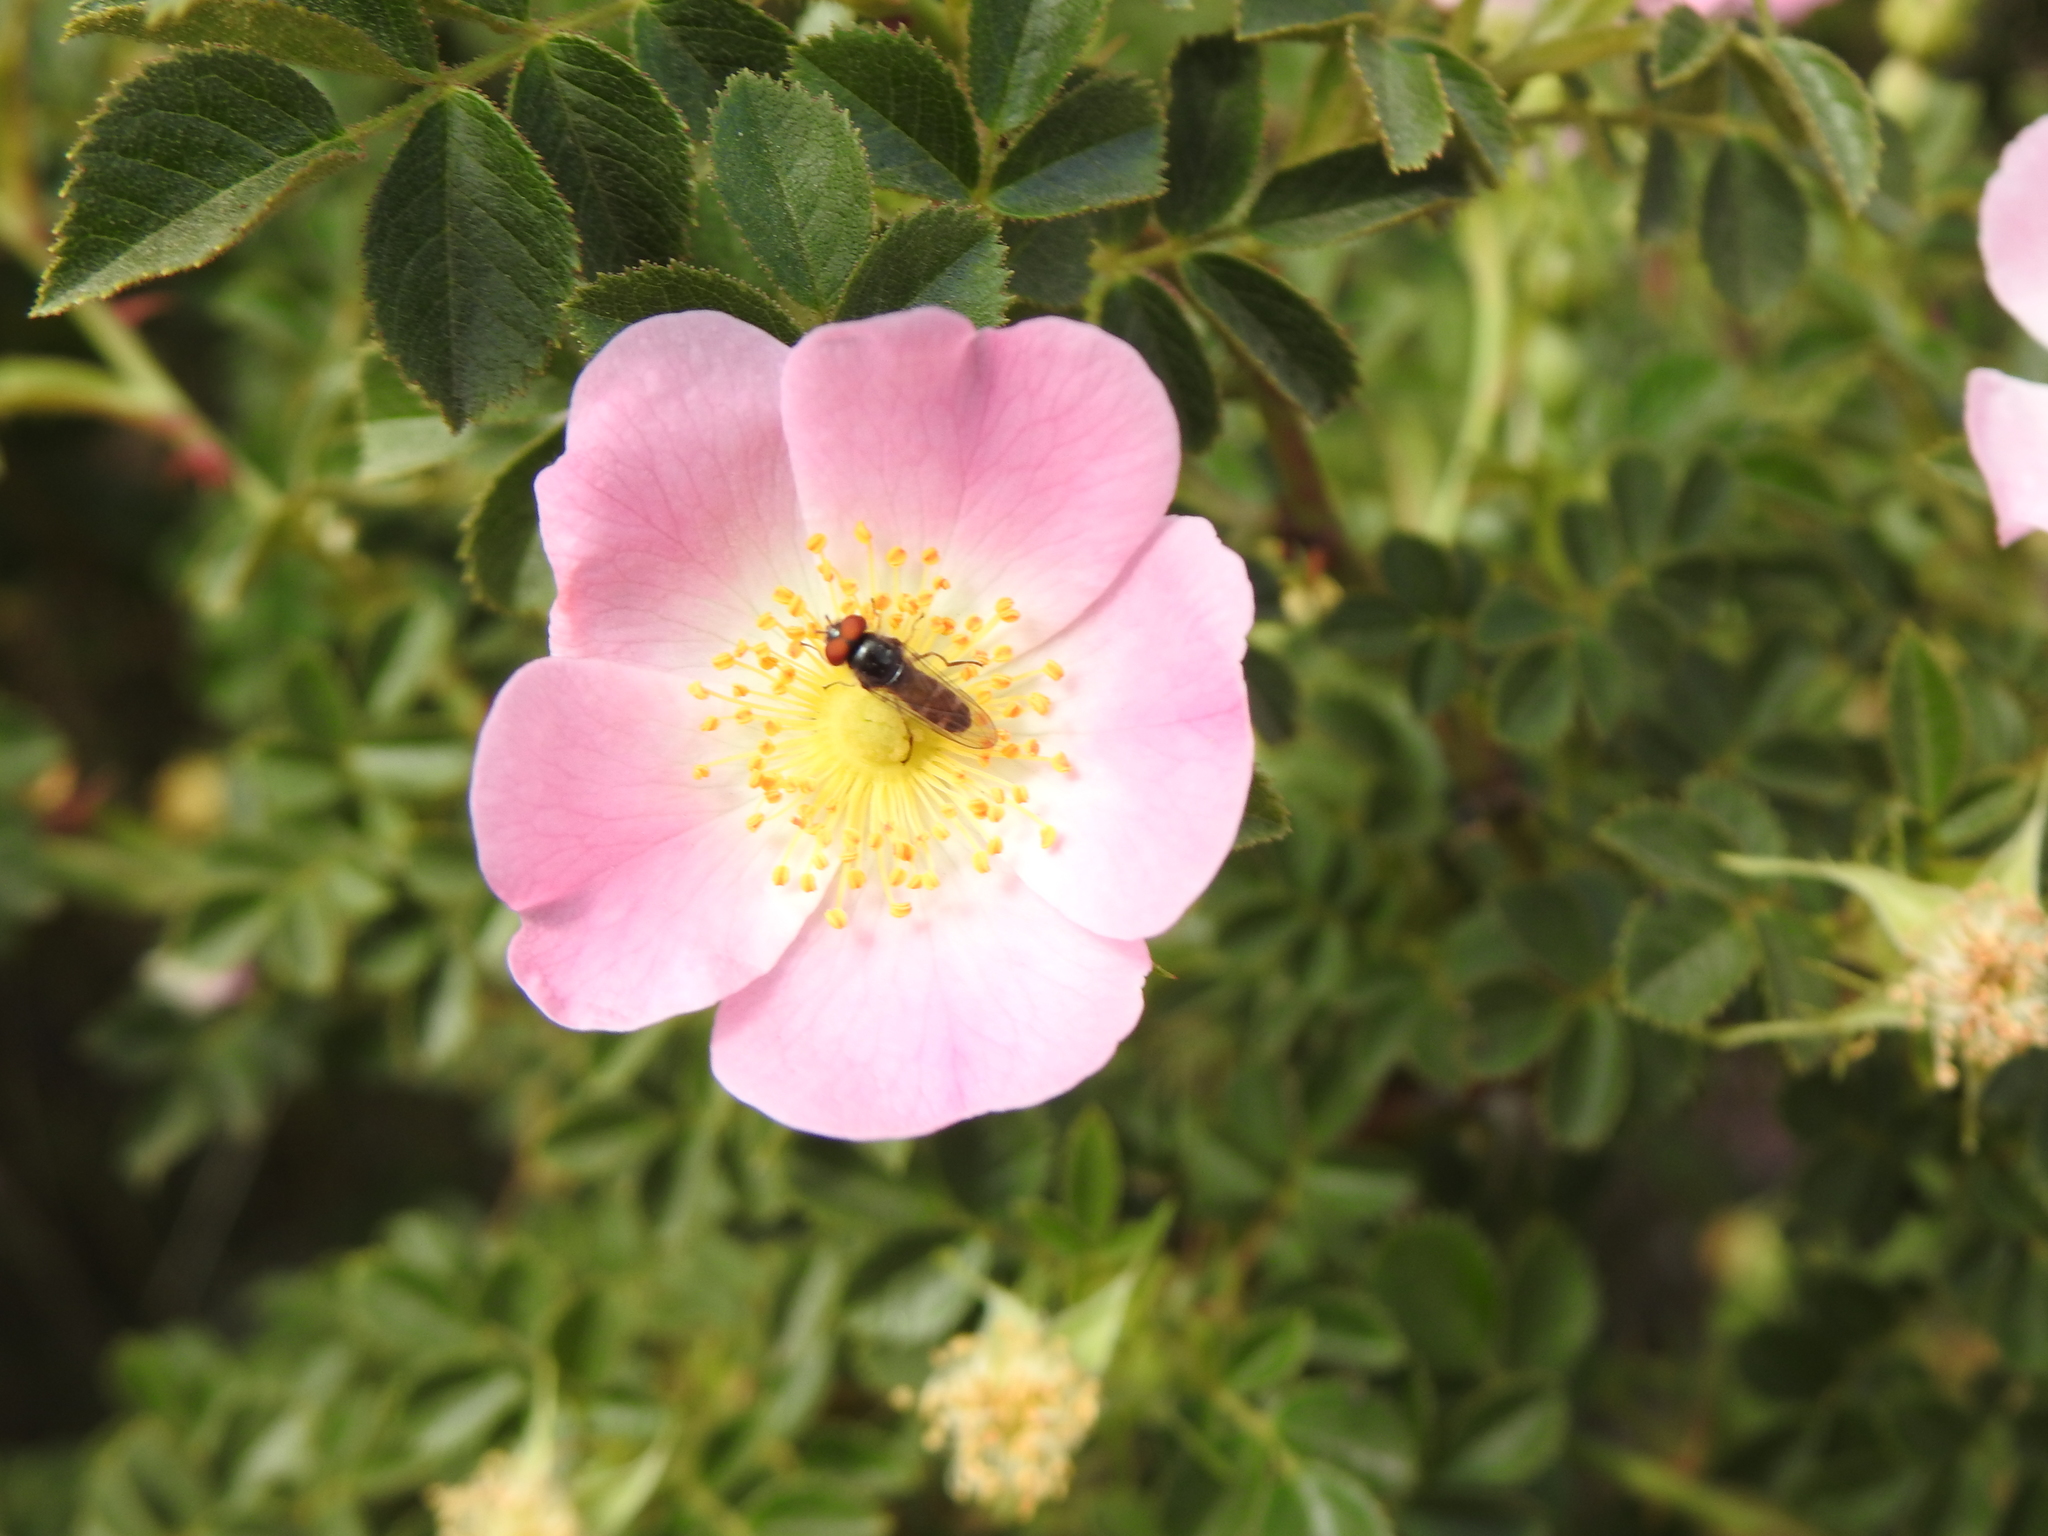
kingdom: Plantae
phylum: Tracheophyta
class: Magnoliopsida
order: Rosales
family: Rosaceae
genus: Rosa
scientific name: Rosa rubiginosa
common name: Sweet-briar
